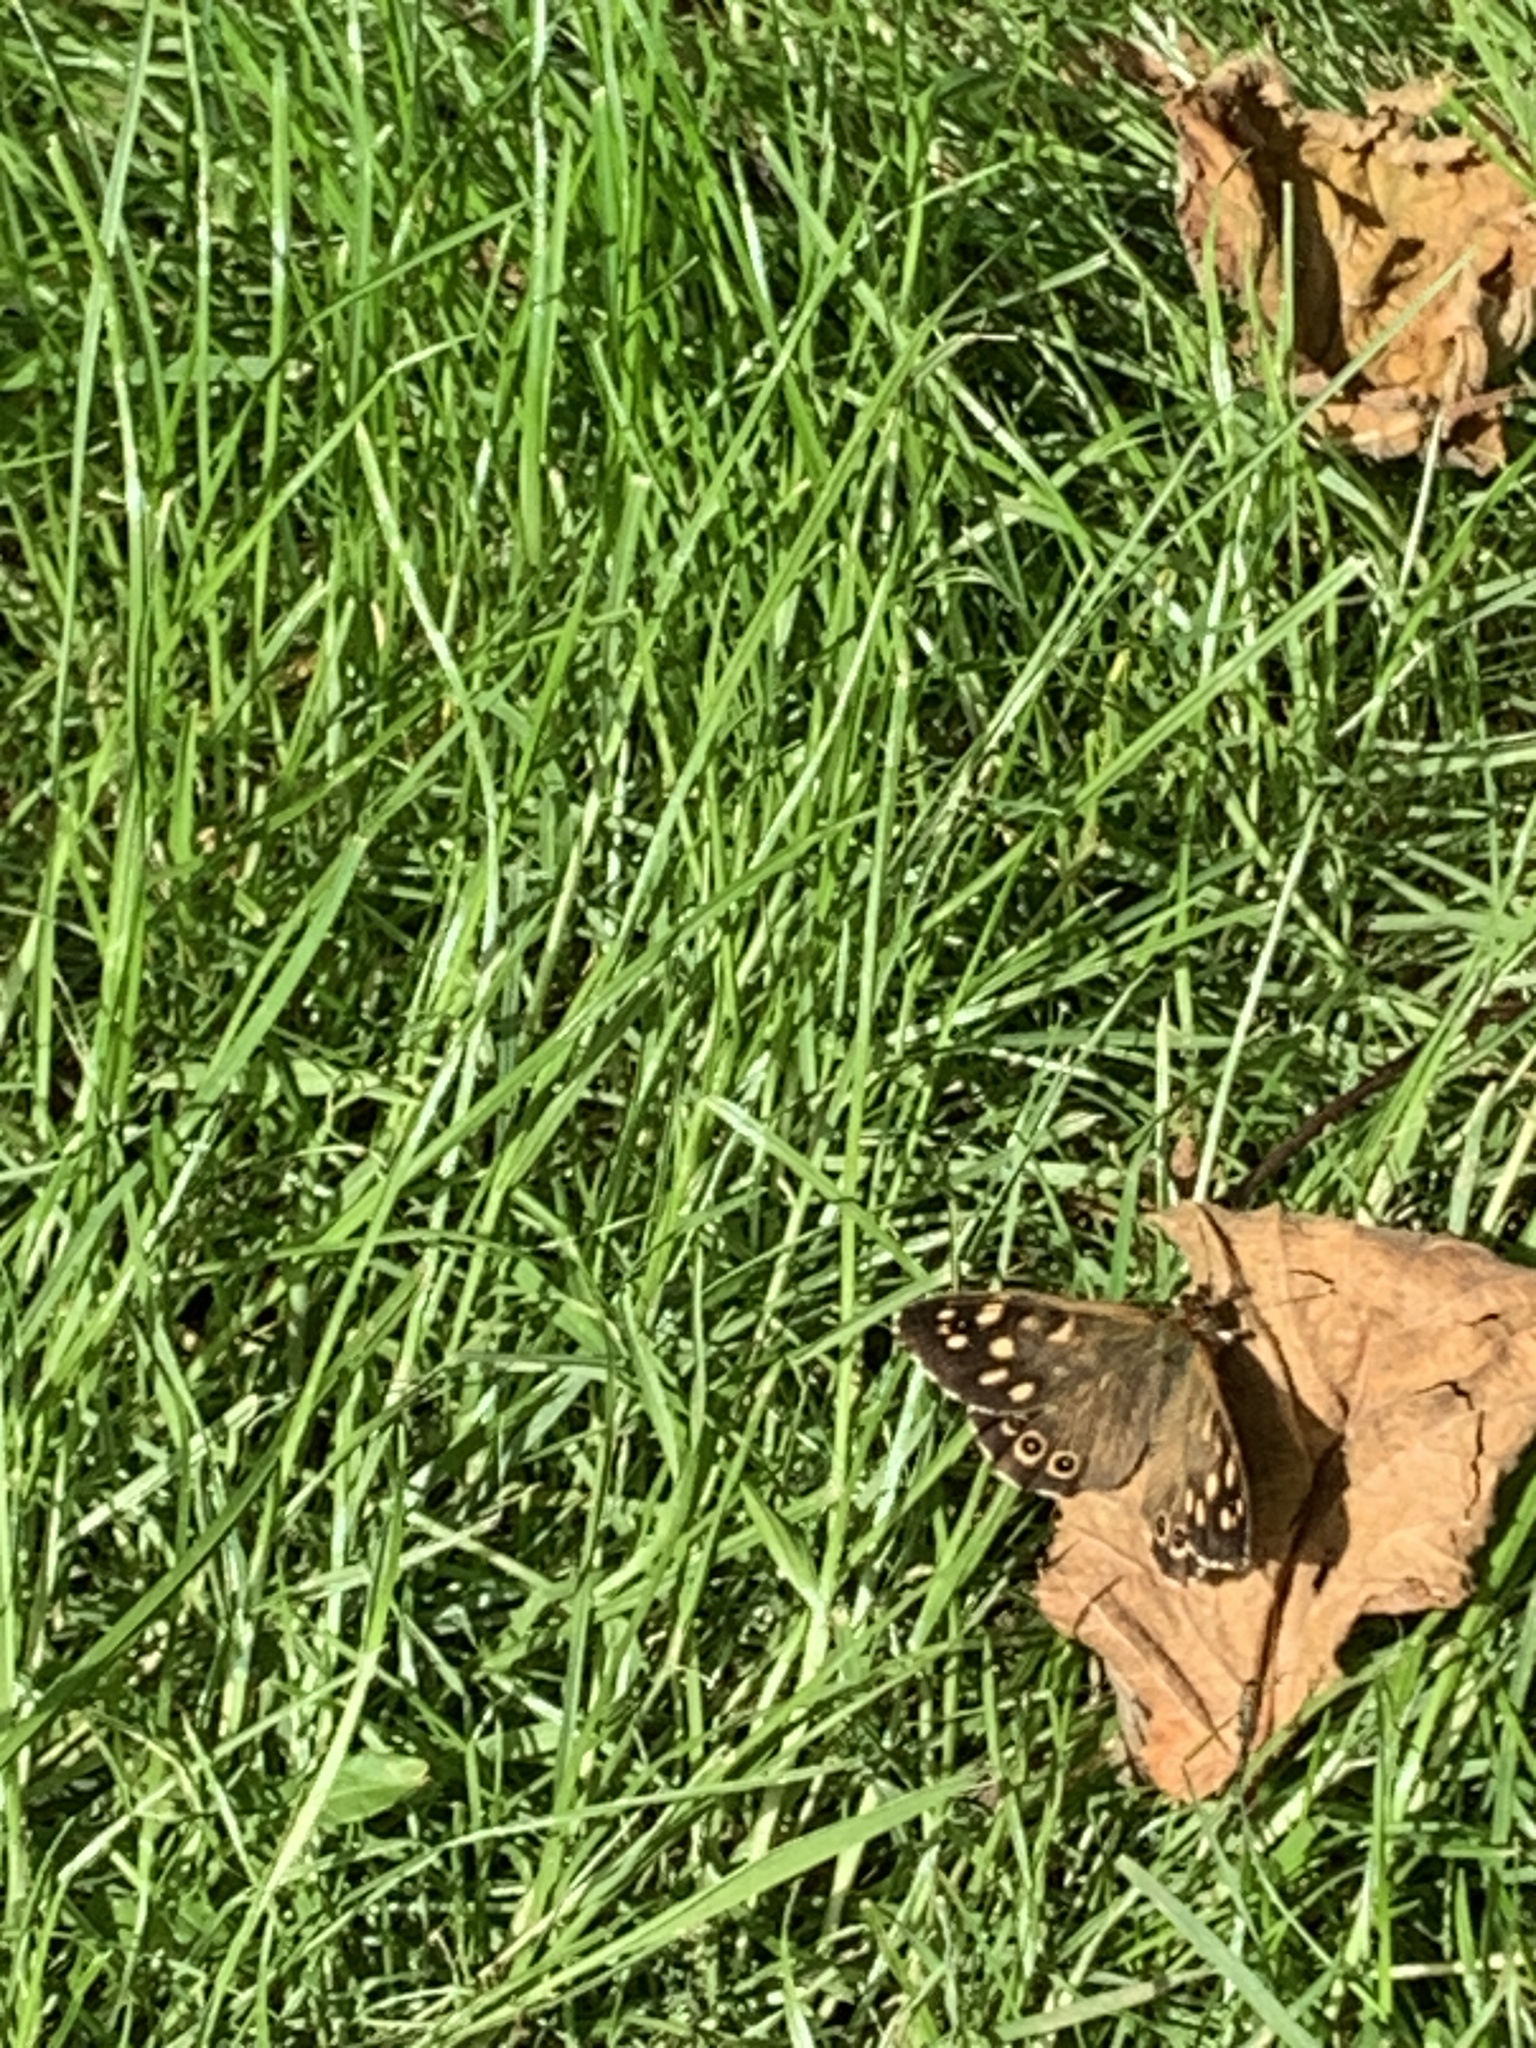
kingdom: Animalia
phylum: Arthropoda
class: Insecta
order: Lepidoptera
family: Nymphalidae
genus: Pararge
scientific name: Pararge aegeria
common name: Speckled wood
